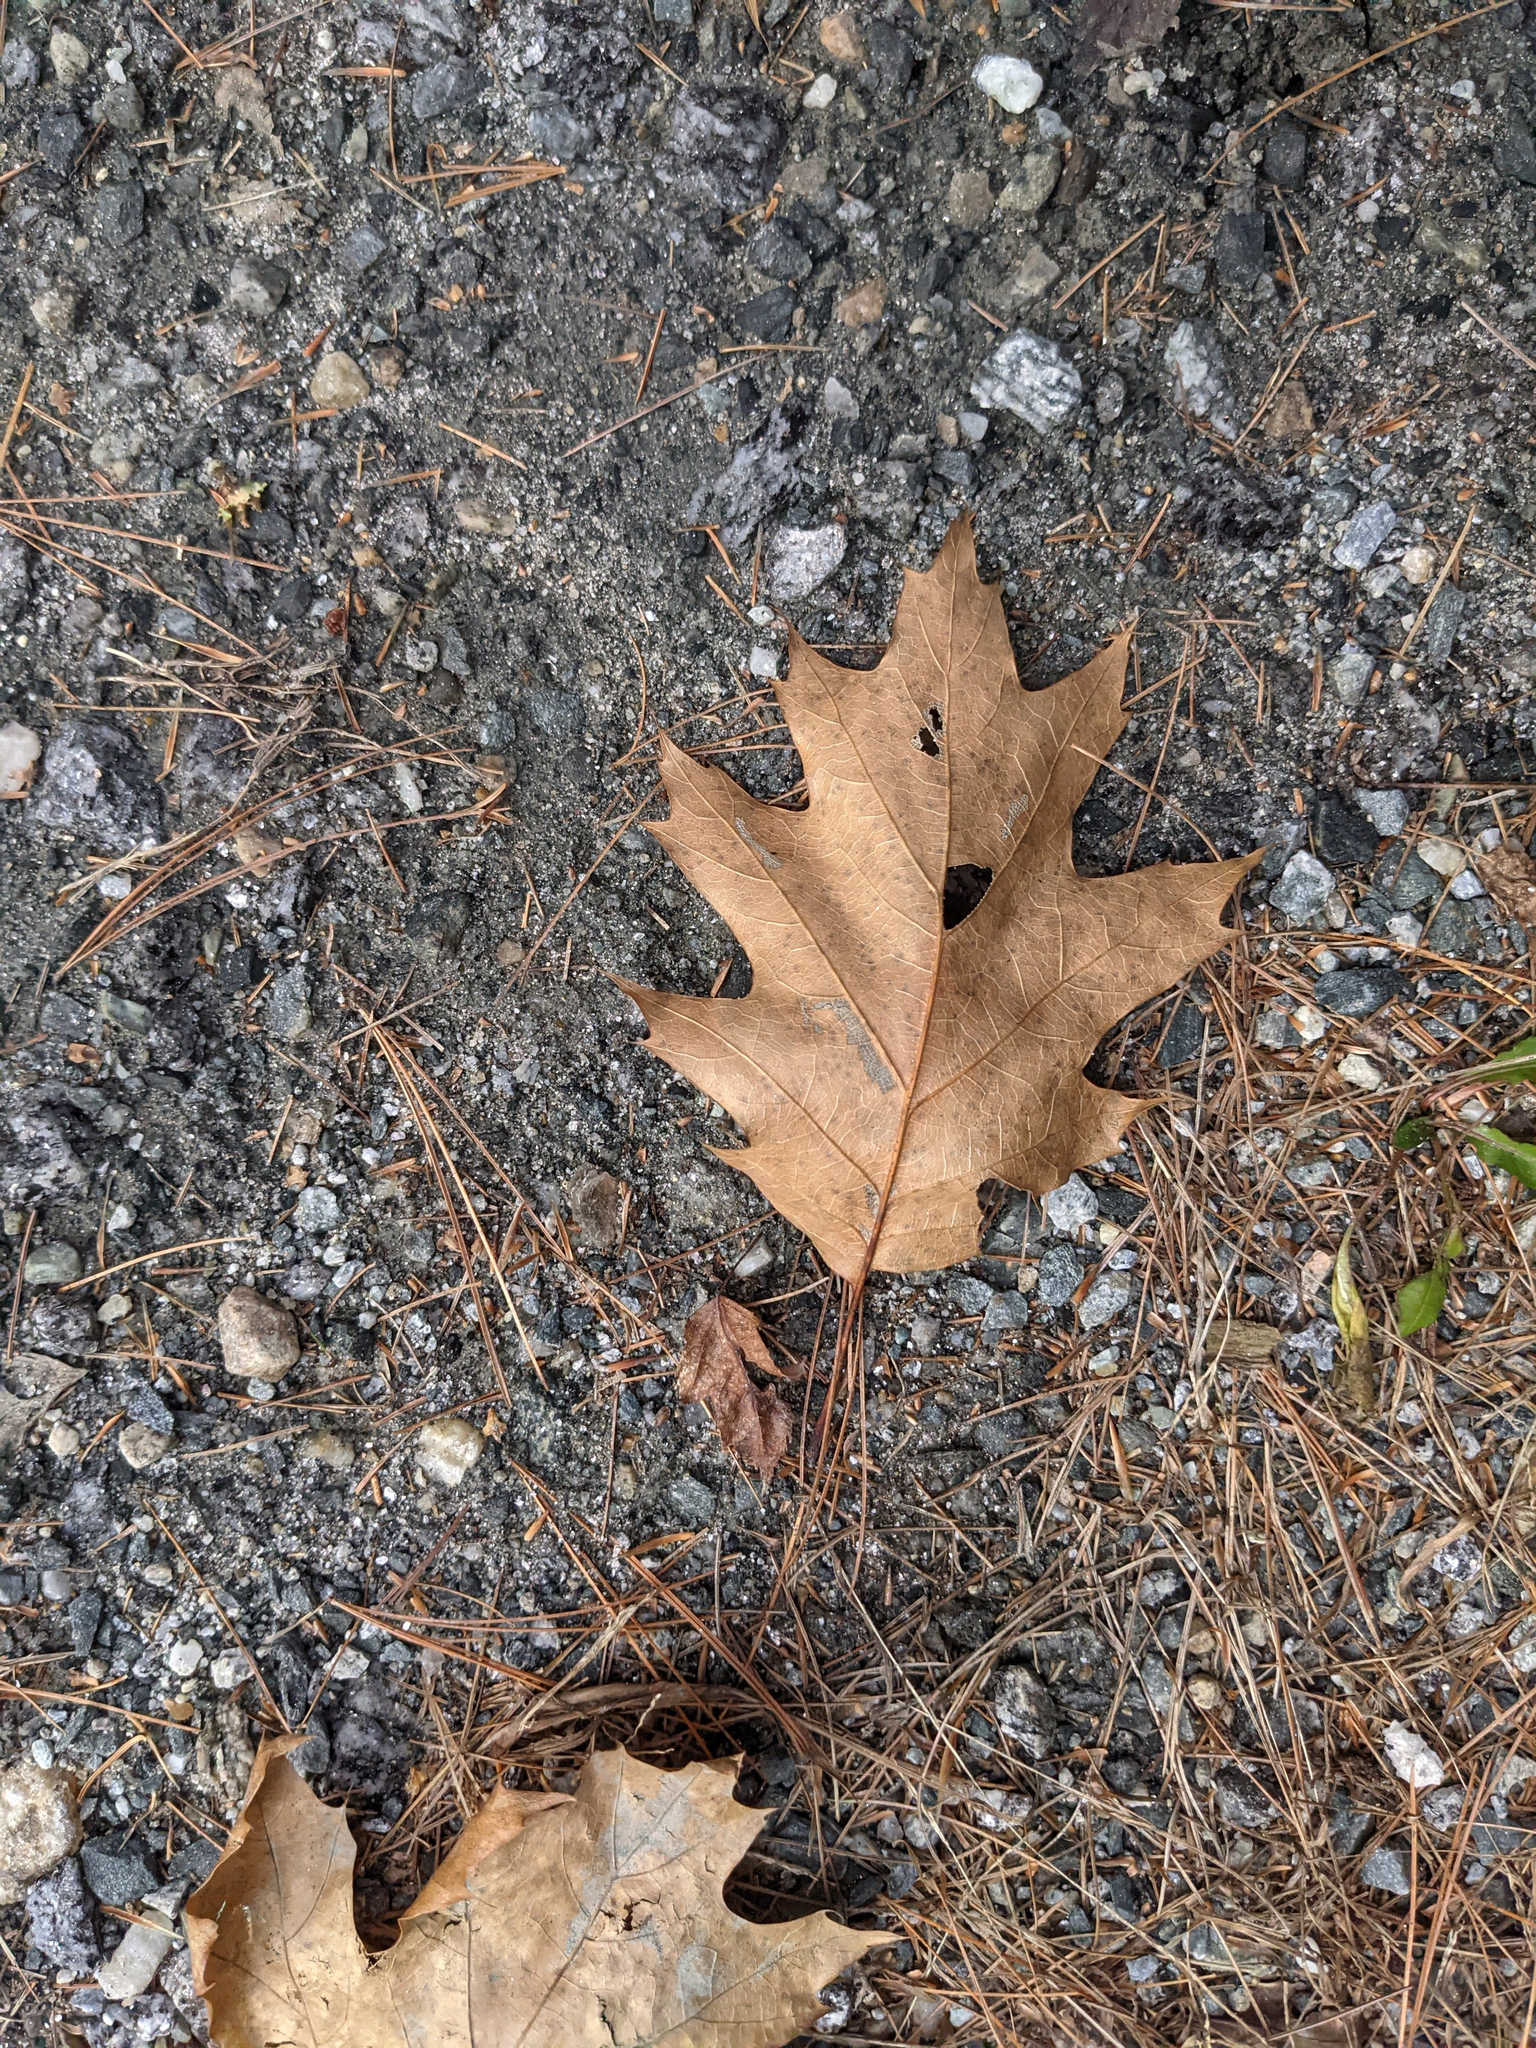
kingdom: Plantae
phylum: Tracheophyta
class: Magnoliopsida
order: Fagales
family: Fagaceae
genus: Quercus
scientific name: Quercus rubra
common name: Red oak
